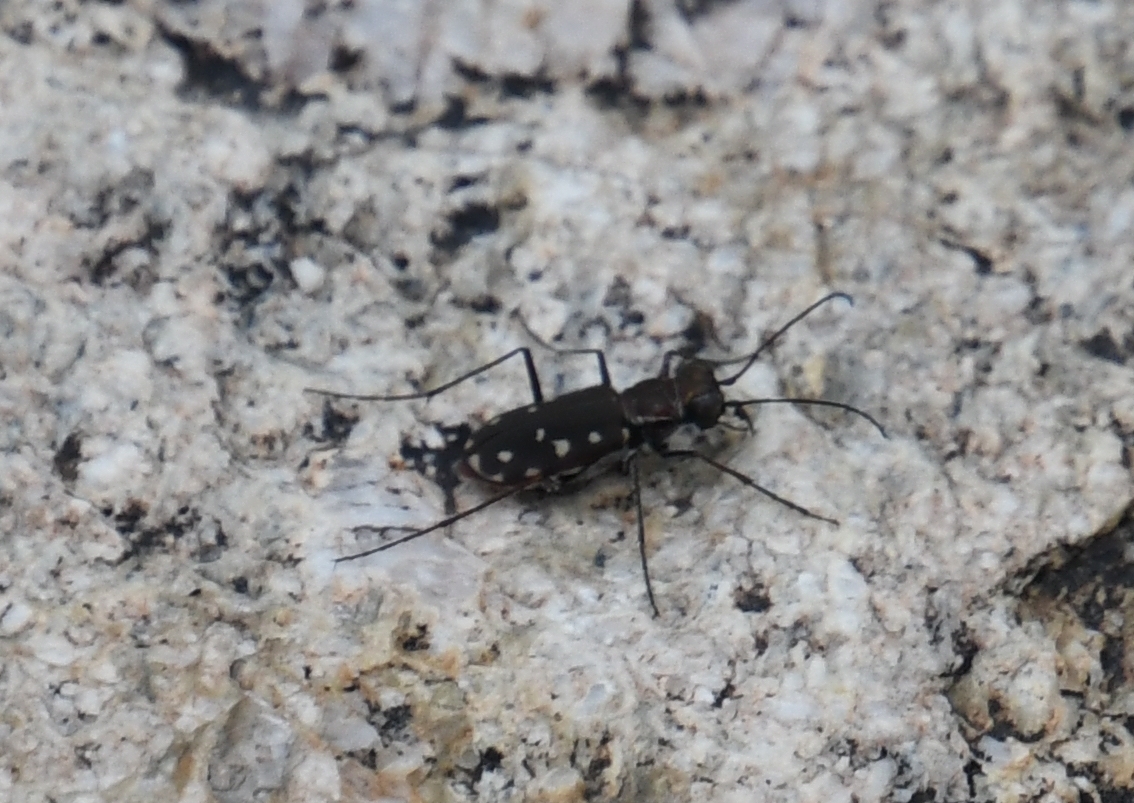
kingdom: Animalia
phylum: Arthropoda
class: Insecta
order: Coleoptera
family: Carabidae
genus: Cicindela
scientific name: Cicindela sedecimpunctata
